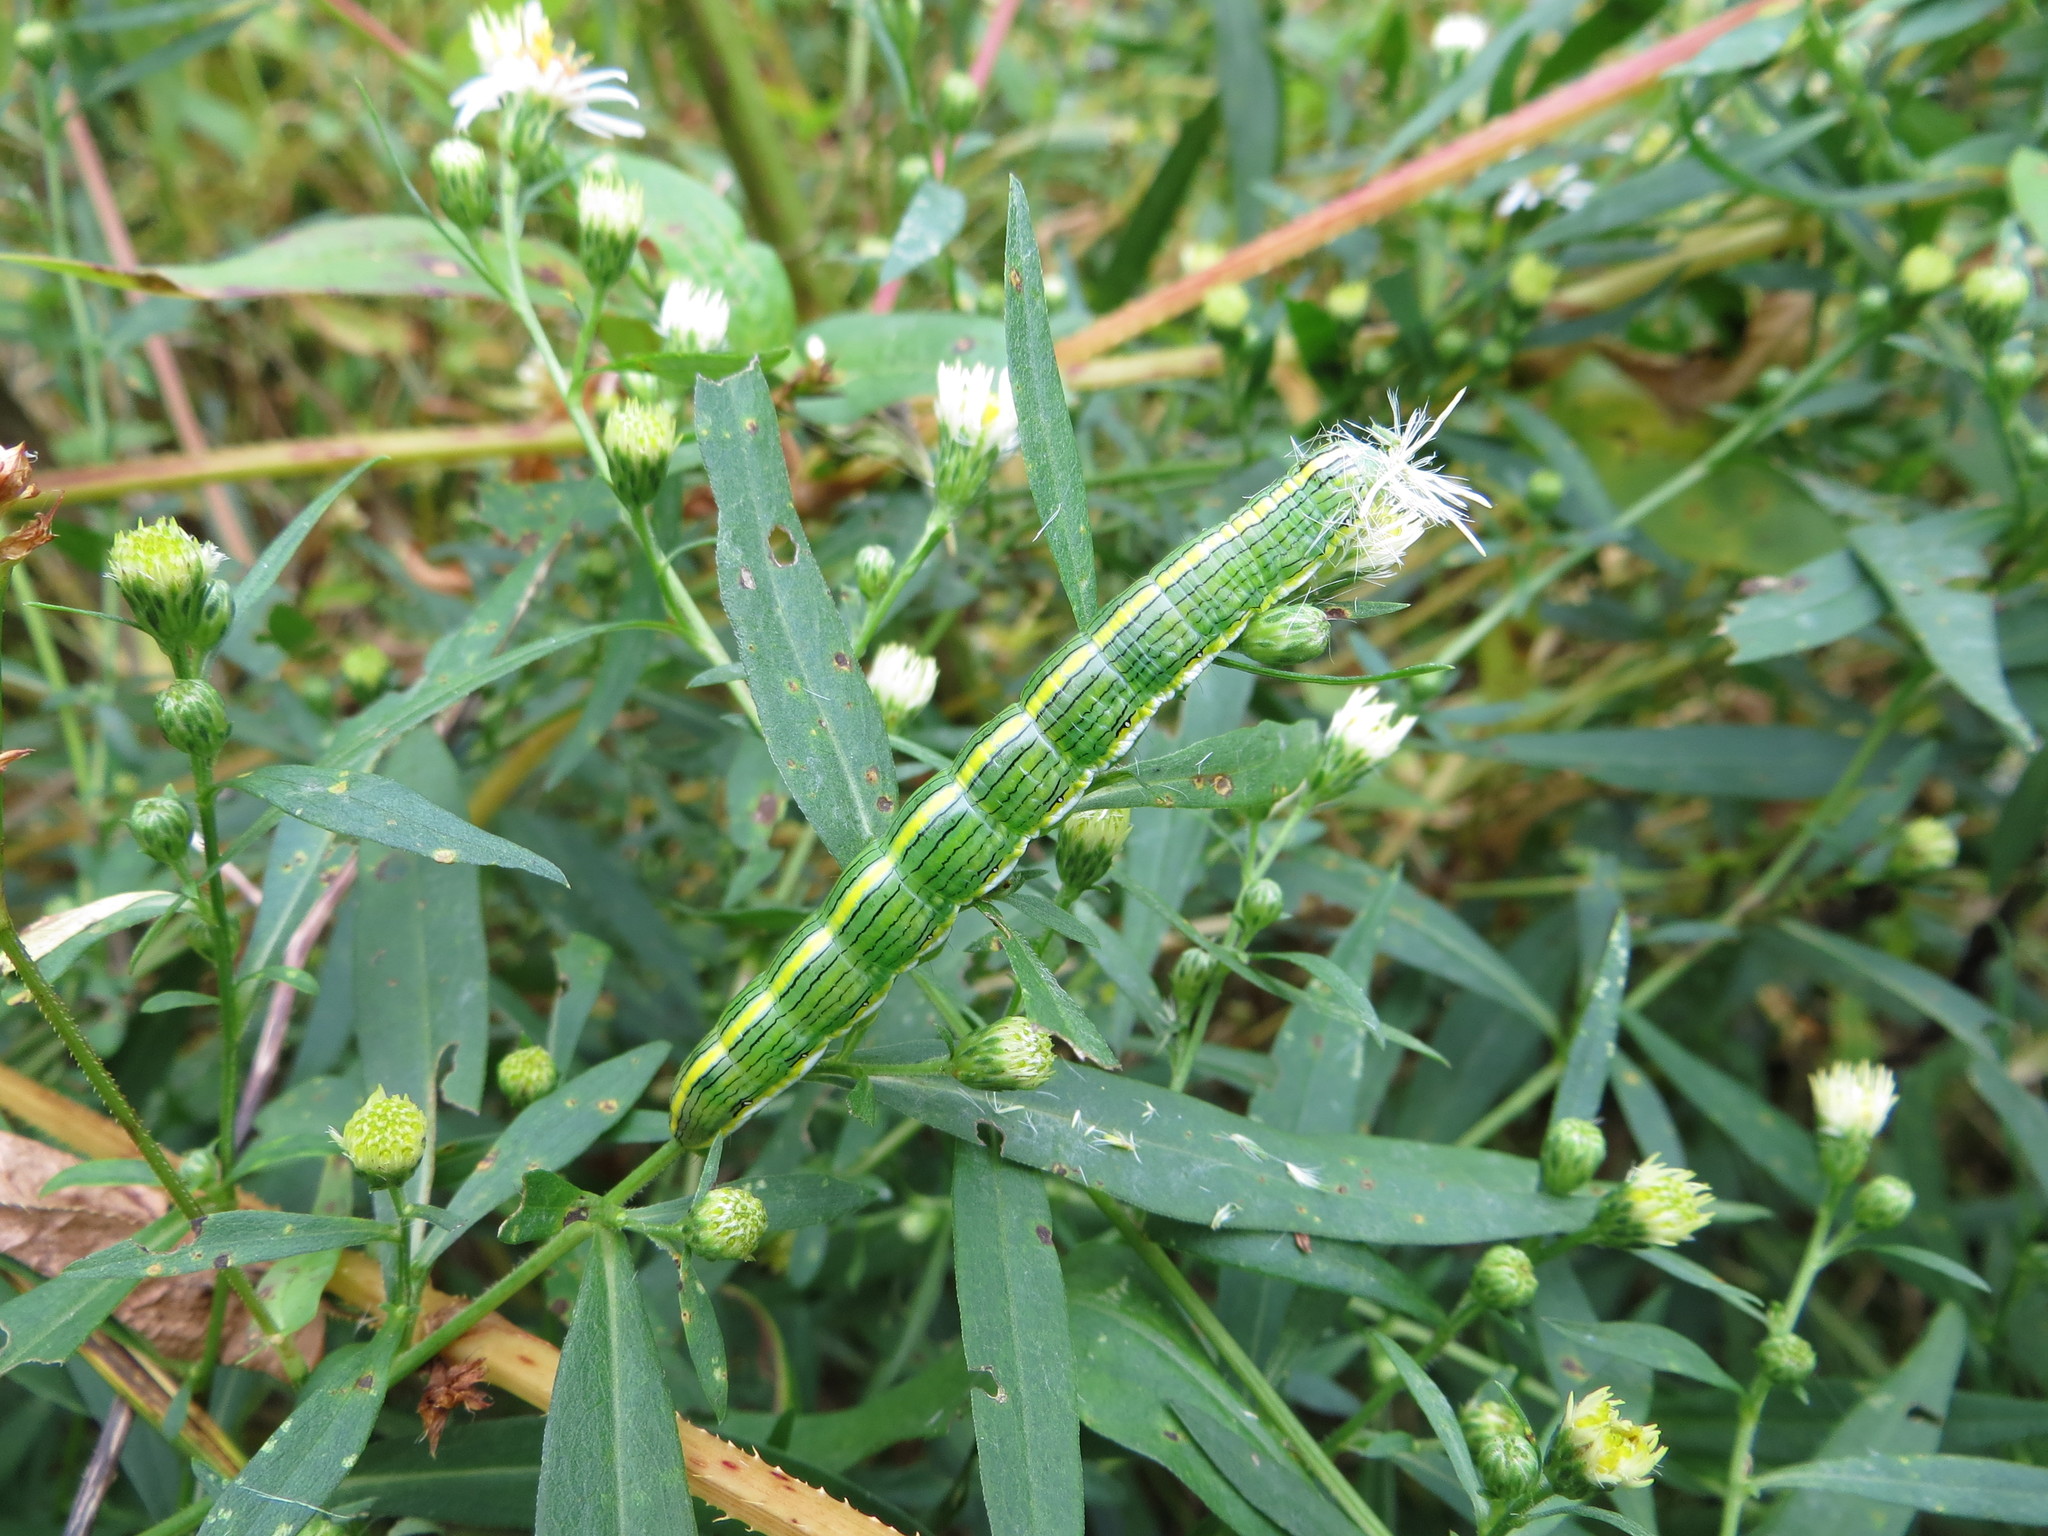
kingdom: Animalia
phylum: Arthropoda
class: Insecta
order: Lepidoptera
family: Noctuidae
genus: Cucullia
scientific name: Cucullia asteroides
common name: Asteroid moth
